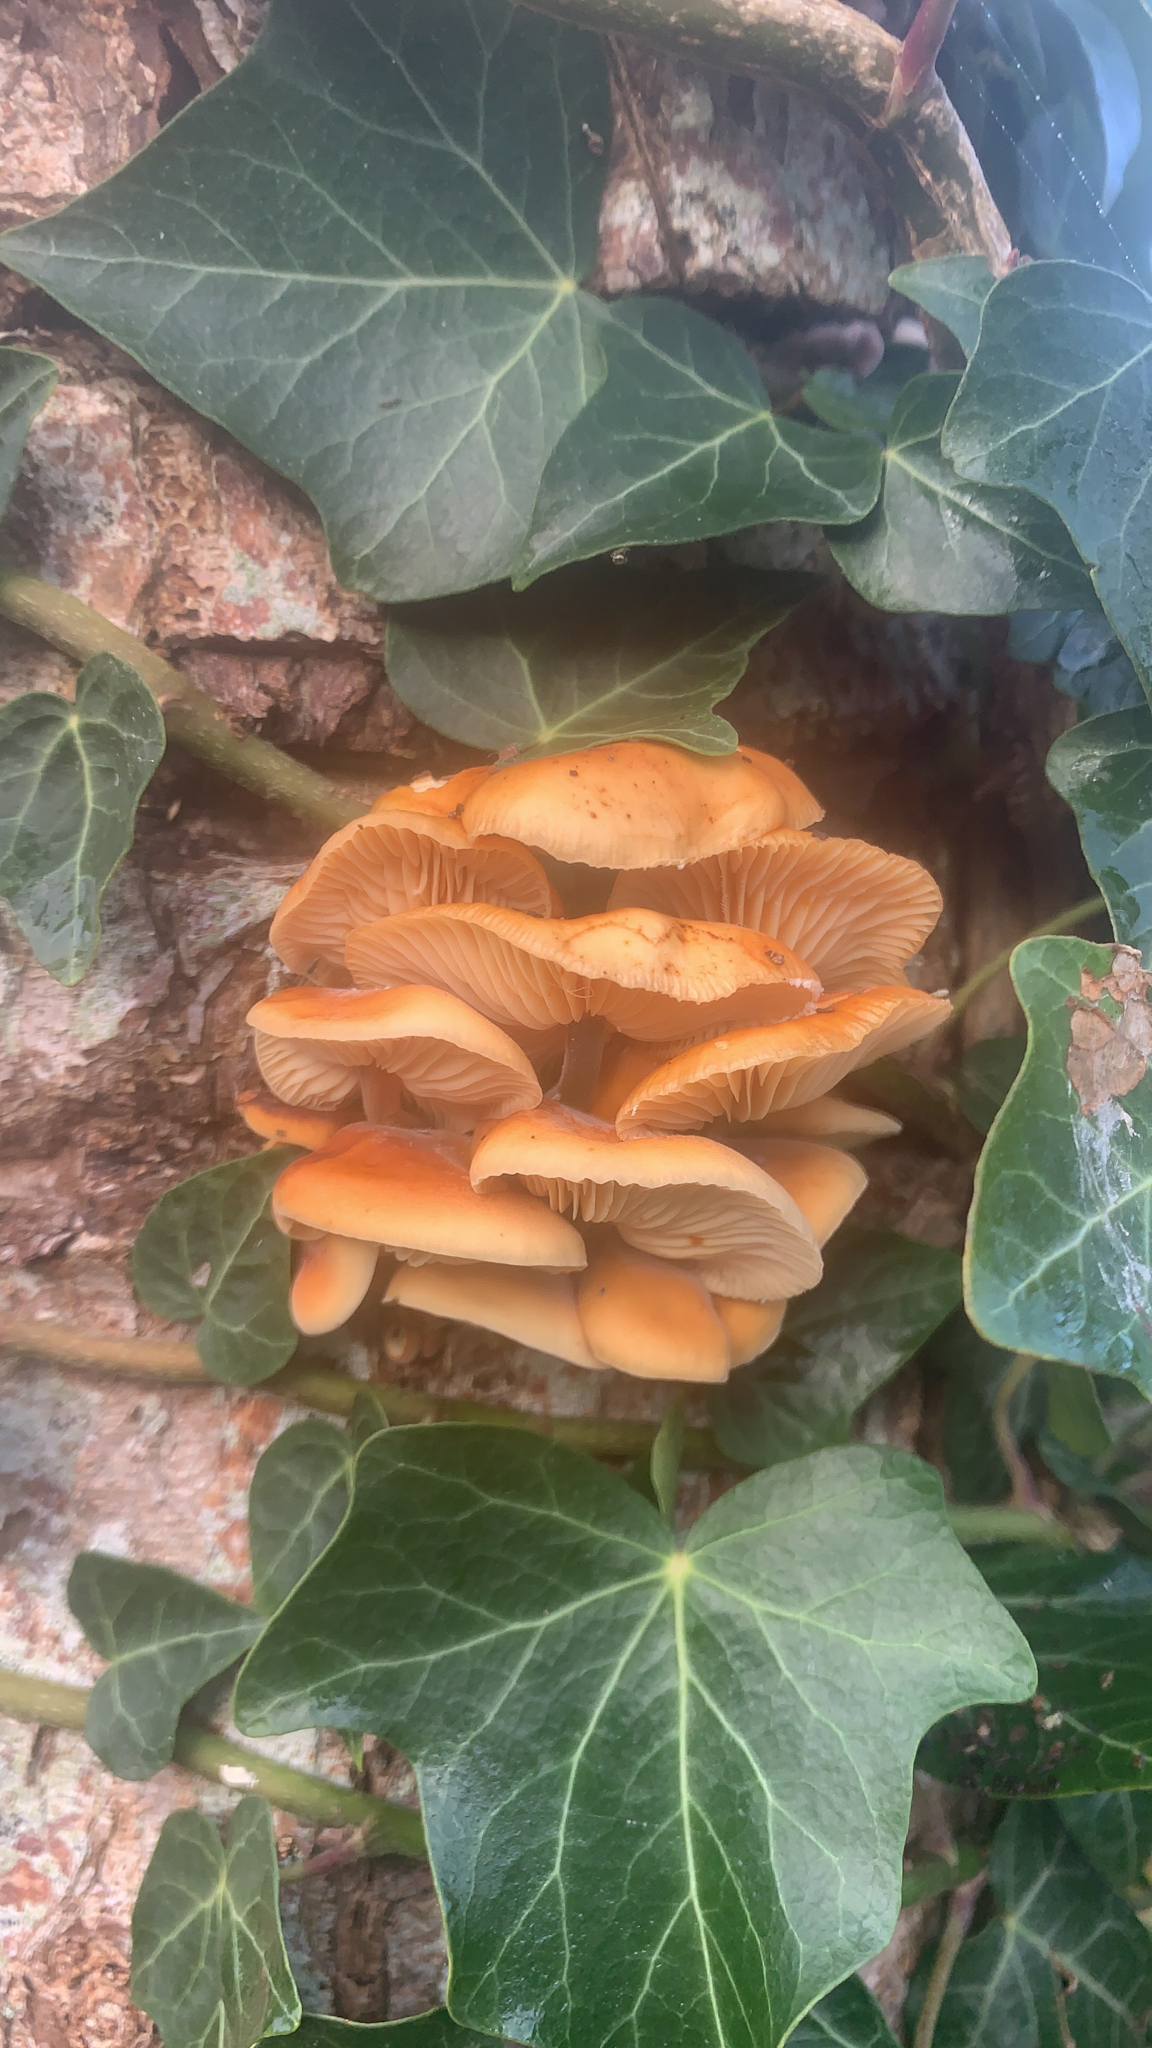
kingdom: Fungi
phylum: Basidiomycota
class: Agaricomycetes
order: Agaricales
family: Physalacriaceae
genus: Flammulina
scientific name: Flammulina
